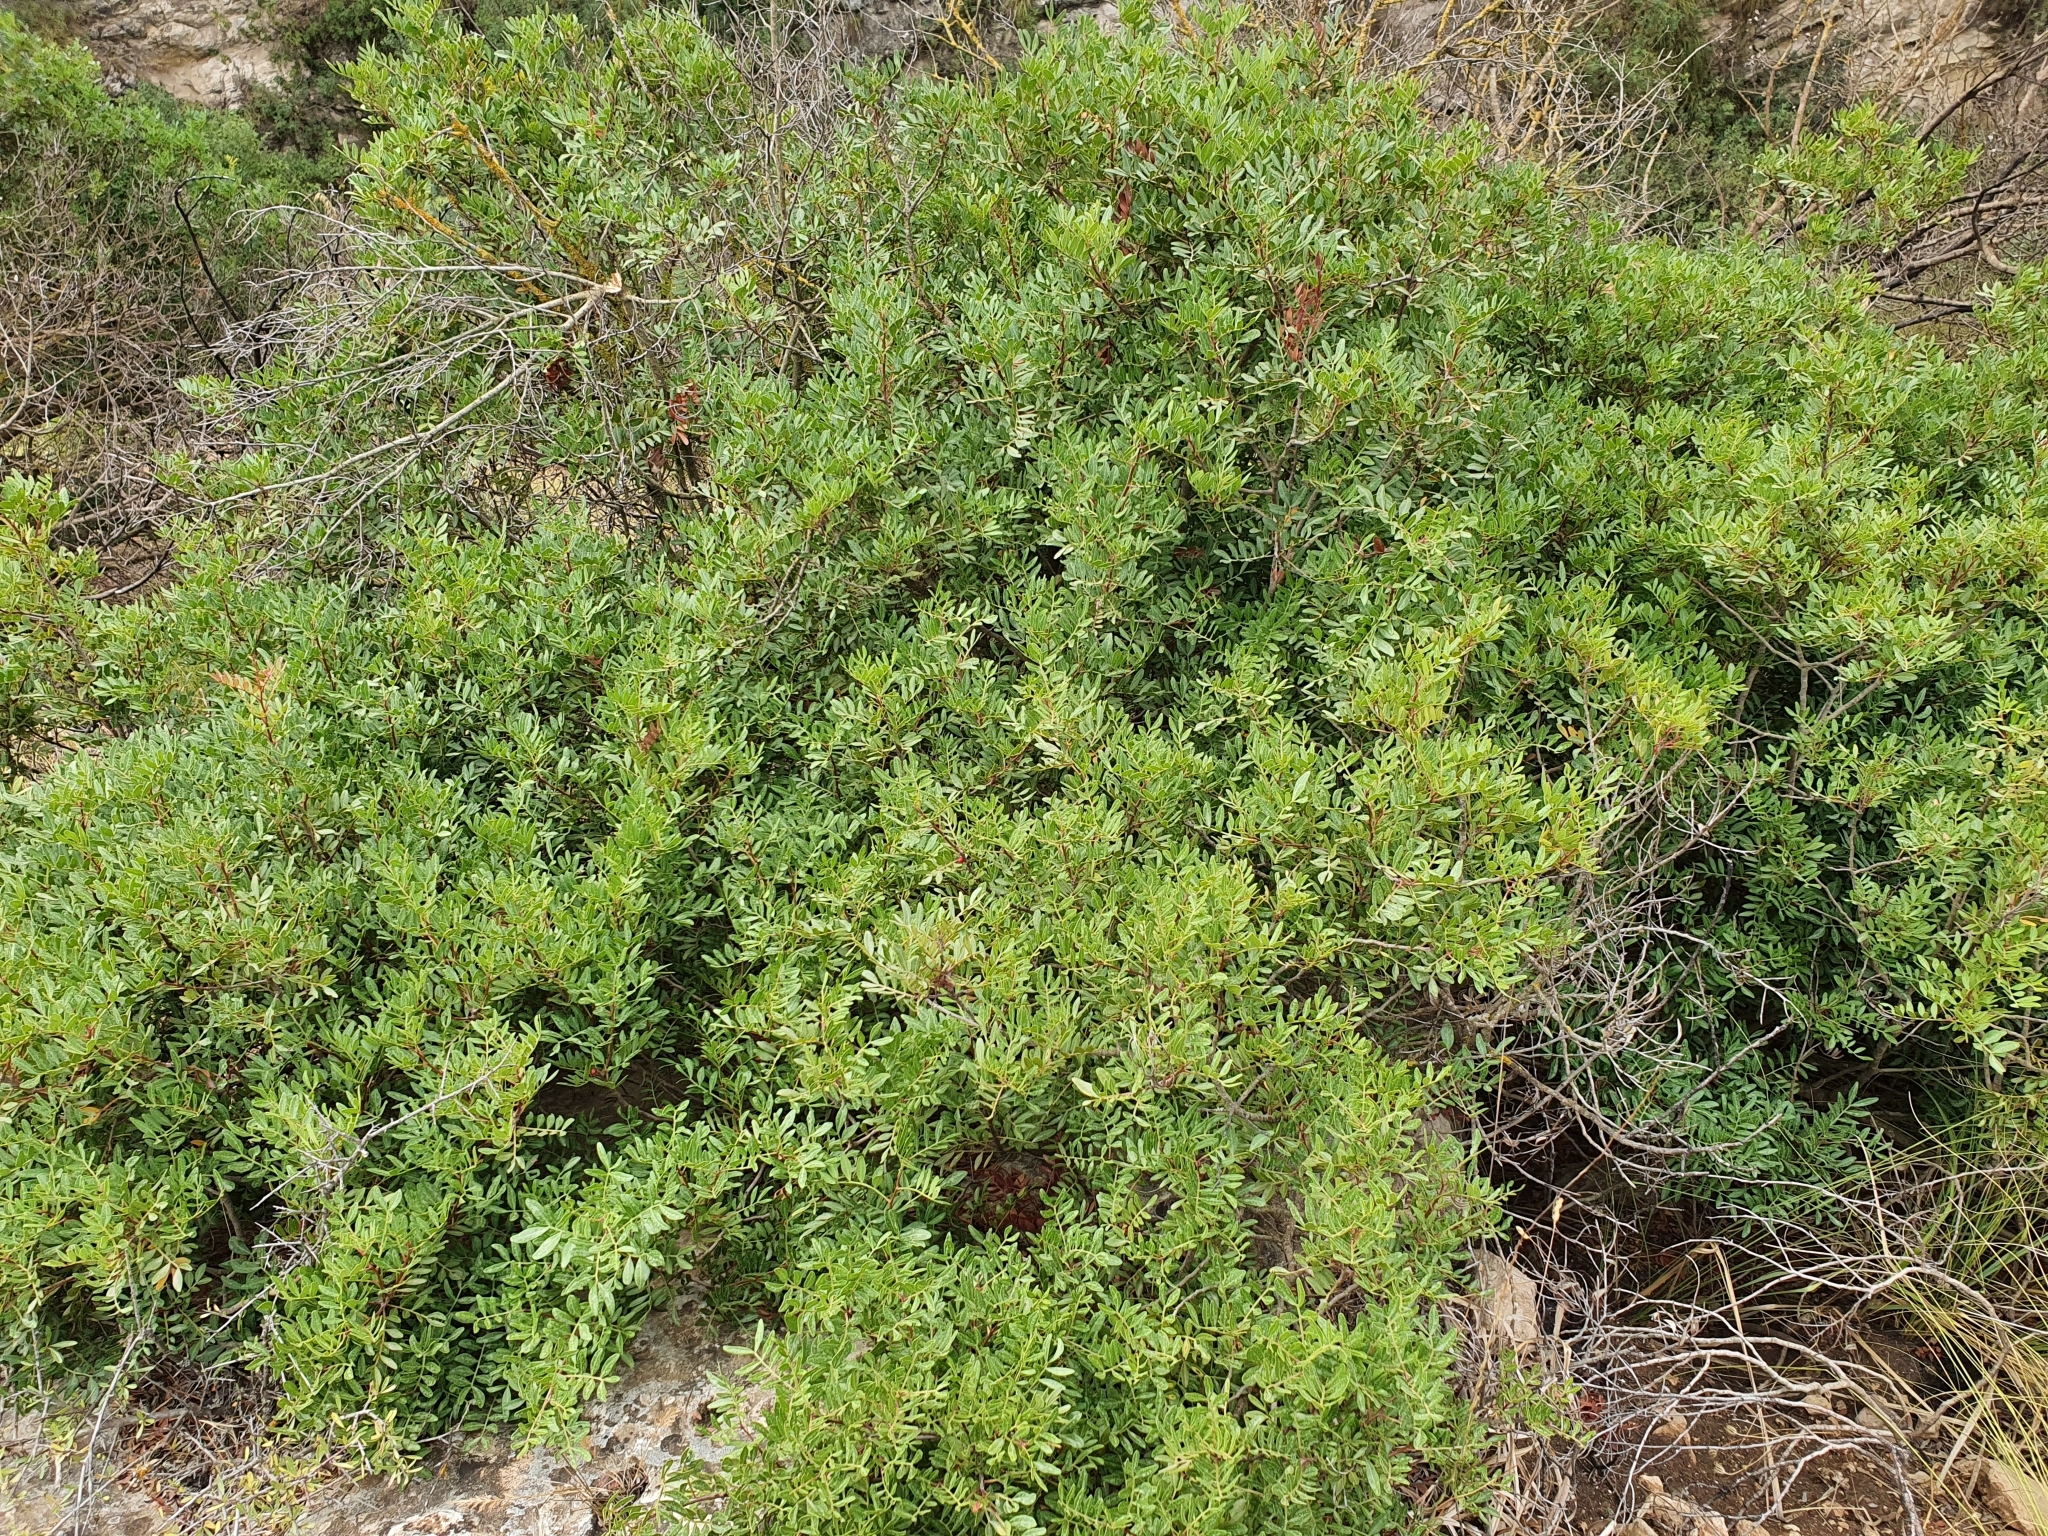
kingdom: Plantae
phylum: Tracheophyta
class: Magnoliopsida
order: Sapindales
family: Anacardiaceae
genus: Pistacia
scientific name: Pistacia lentiscus
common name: Lentisk
